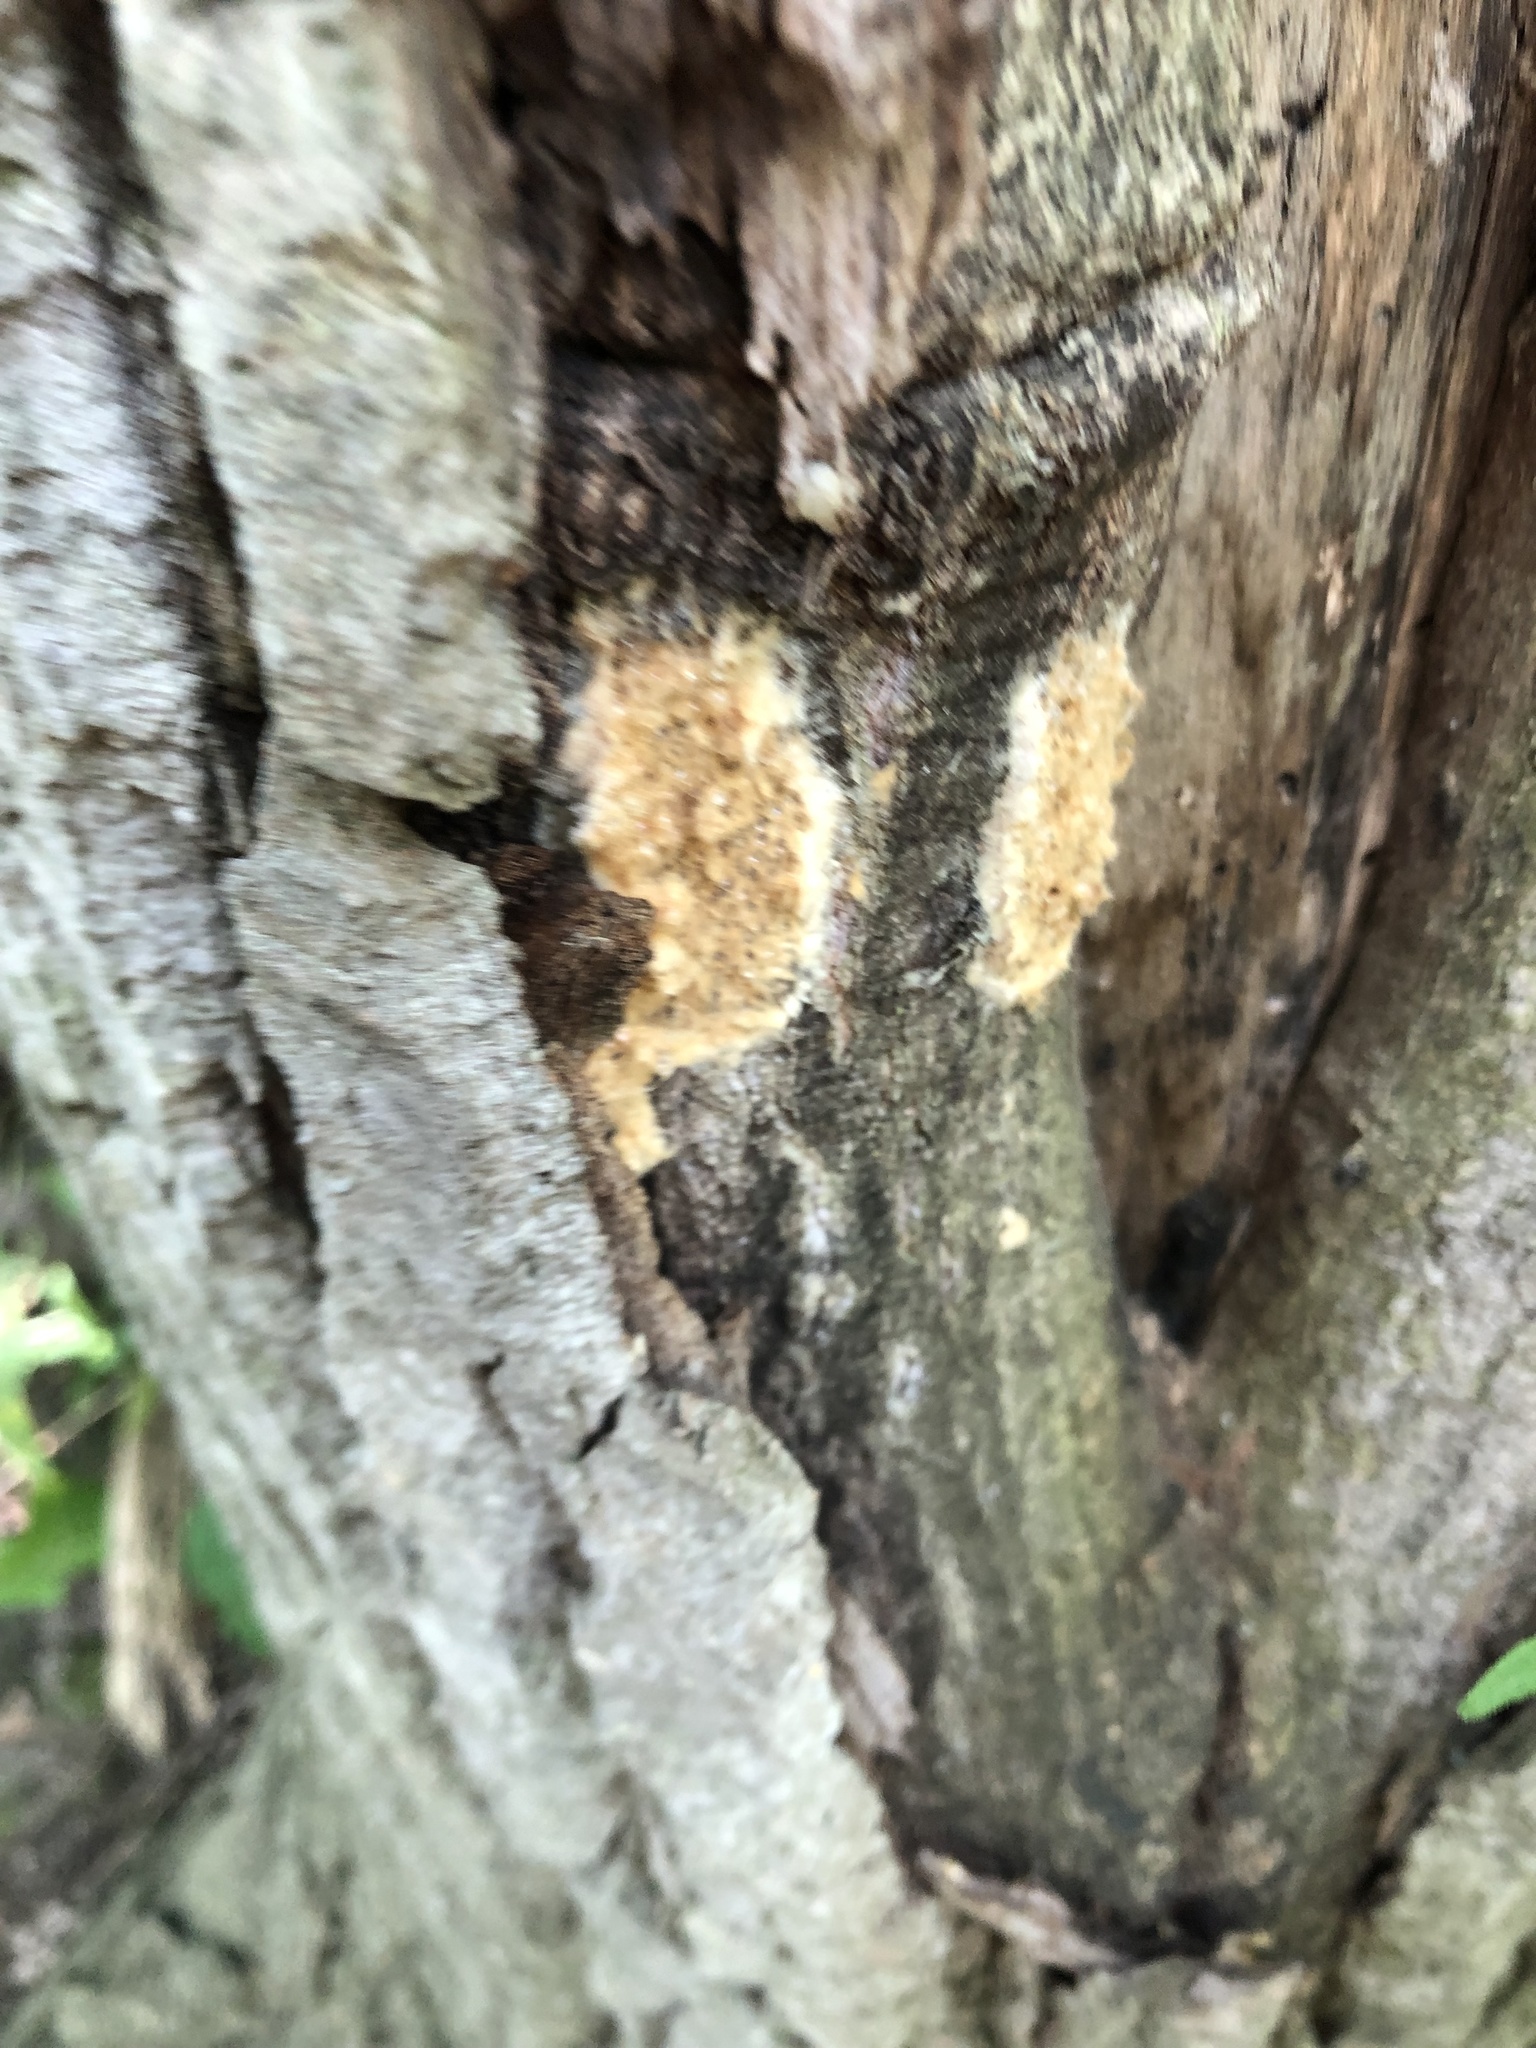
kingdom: Animalia
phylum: Arthropoda
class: Insecta
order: Lepidoptera
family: Erebidae
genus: Lymantria
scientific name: Lymantria dispar
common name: Gypsy moth
